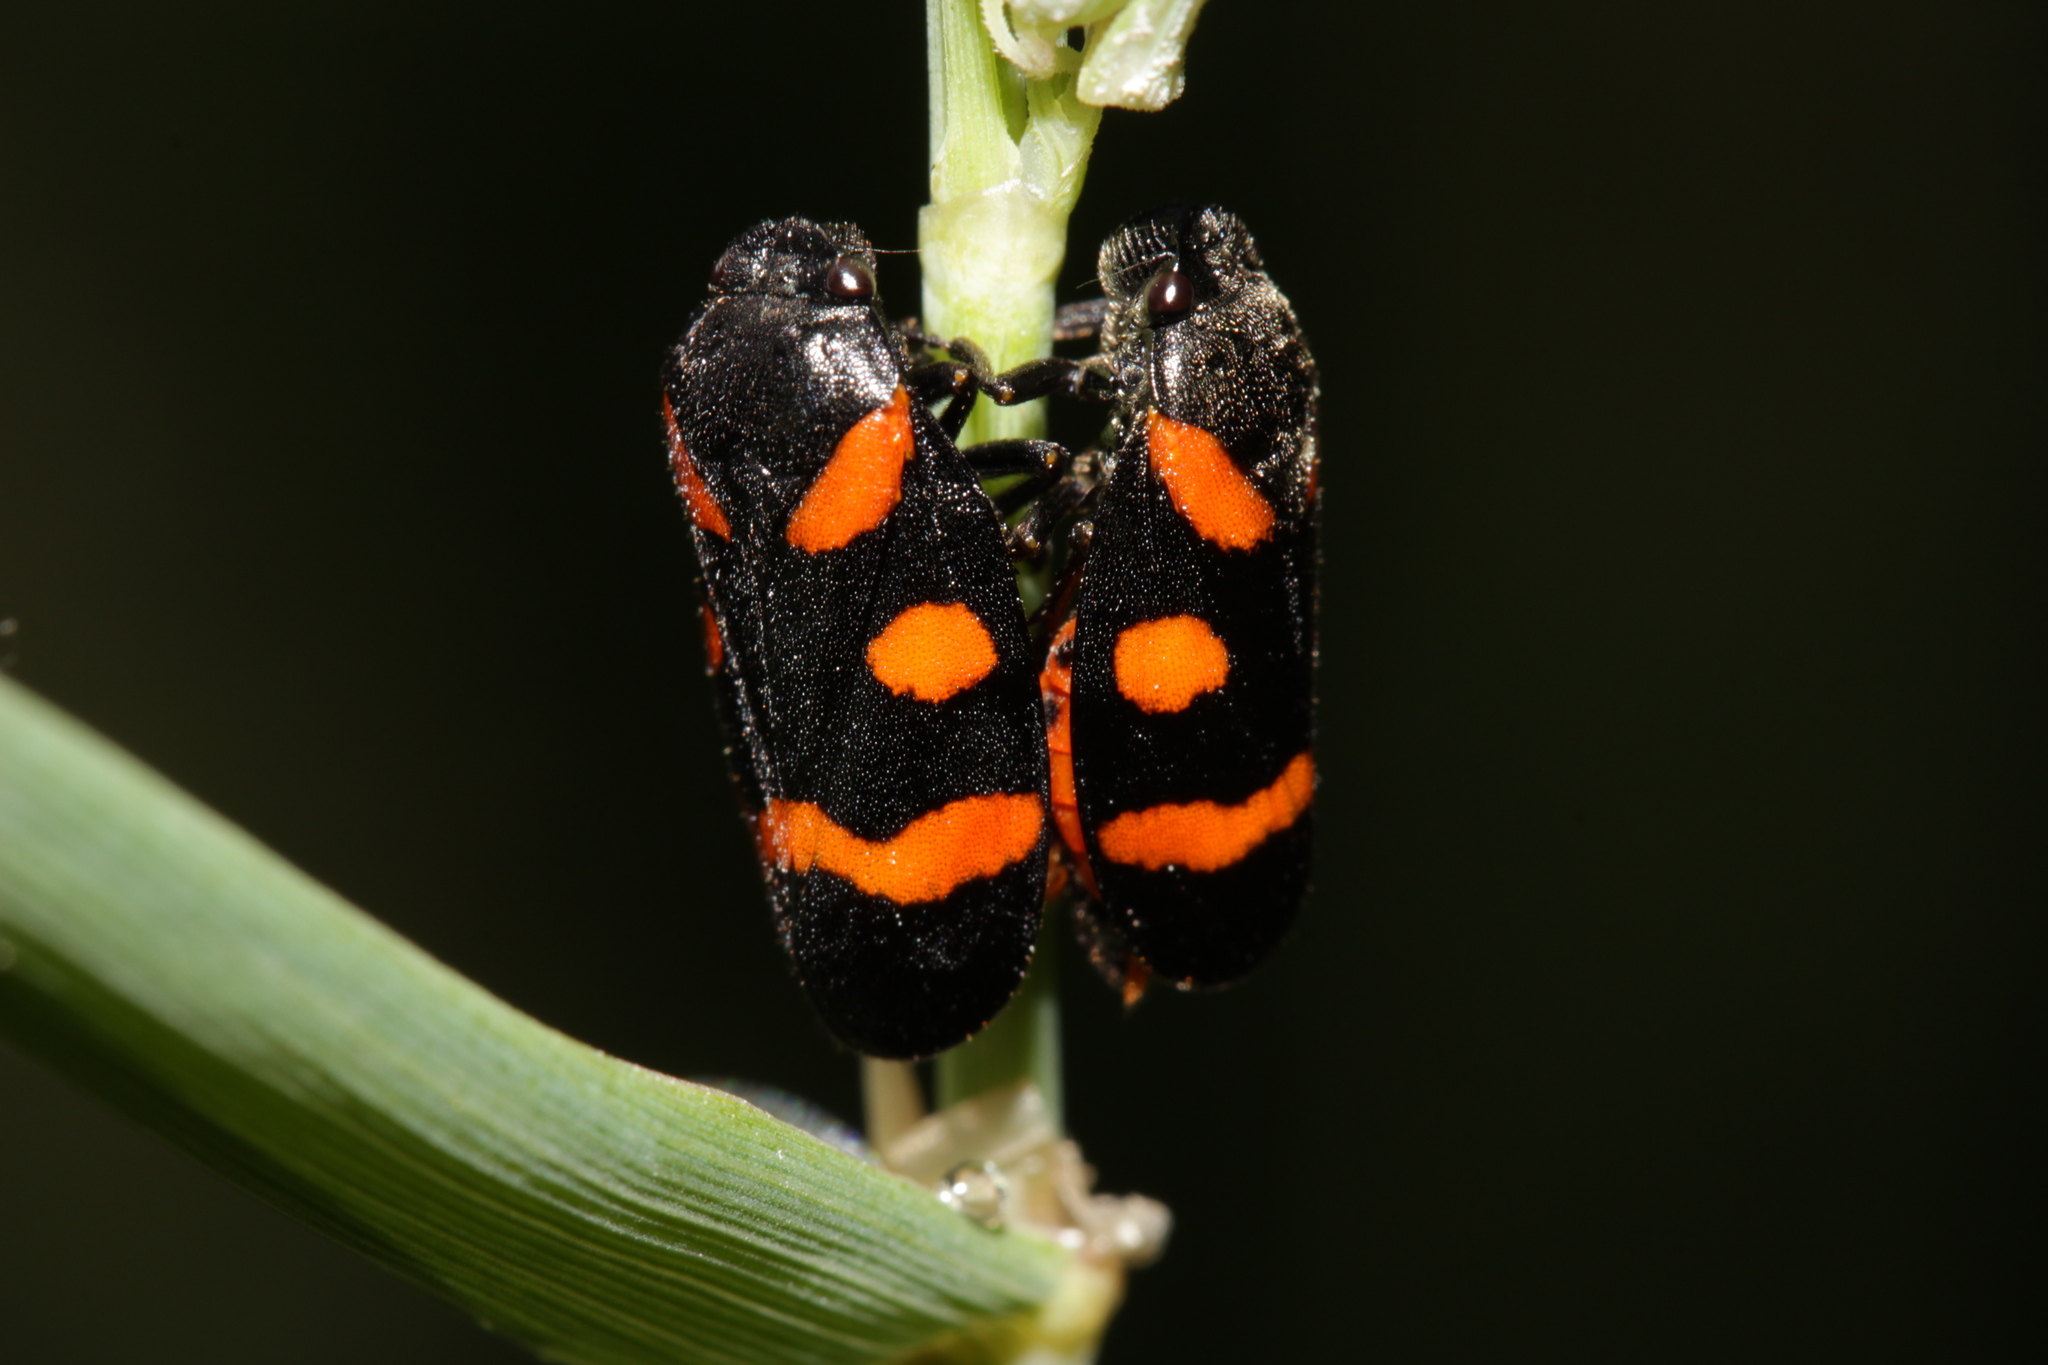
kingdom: Animalia
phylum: Arthropoda
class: Insecta
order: Hemiptera
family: Cercopidae
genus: Cercopis
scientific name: Cercopis sanguinolenta
